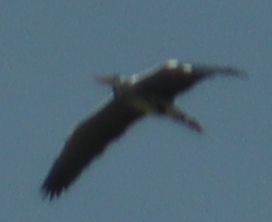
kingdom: Animalia
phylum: Chordata
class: Aves
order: Pelecaniformes
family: Ardeidae
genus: Ardea
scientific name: Ardea cinerea
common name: Grey heron
